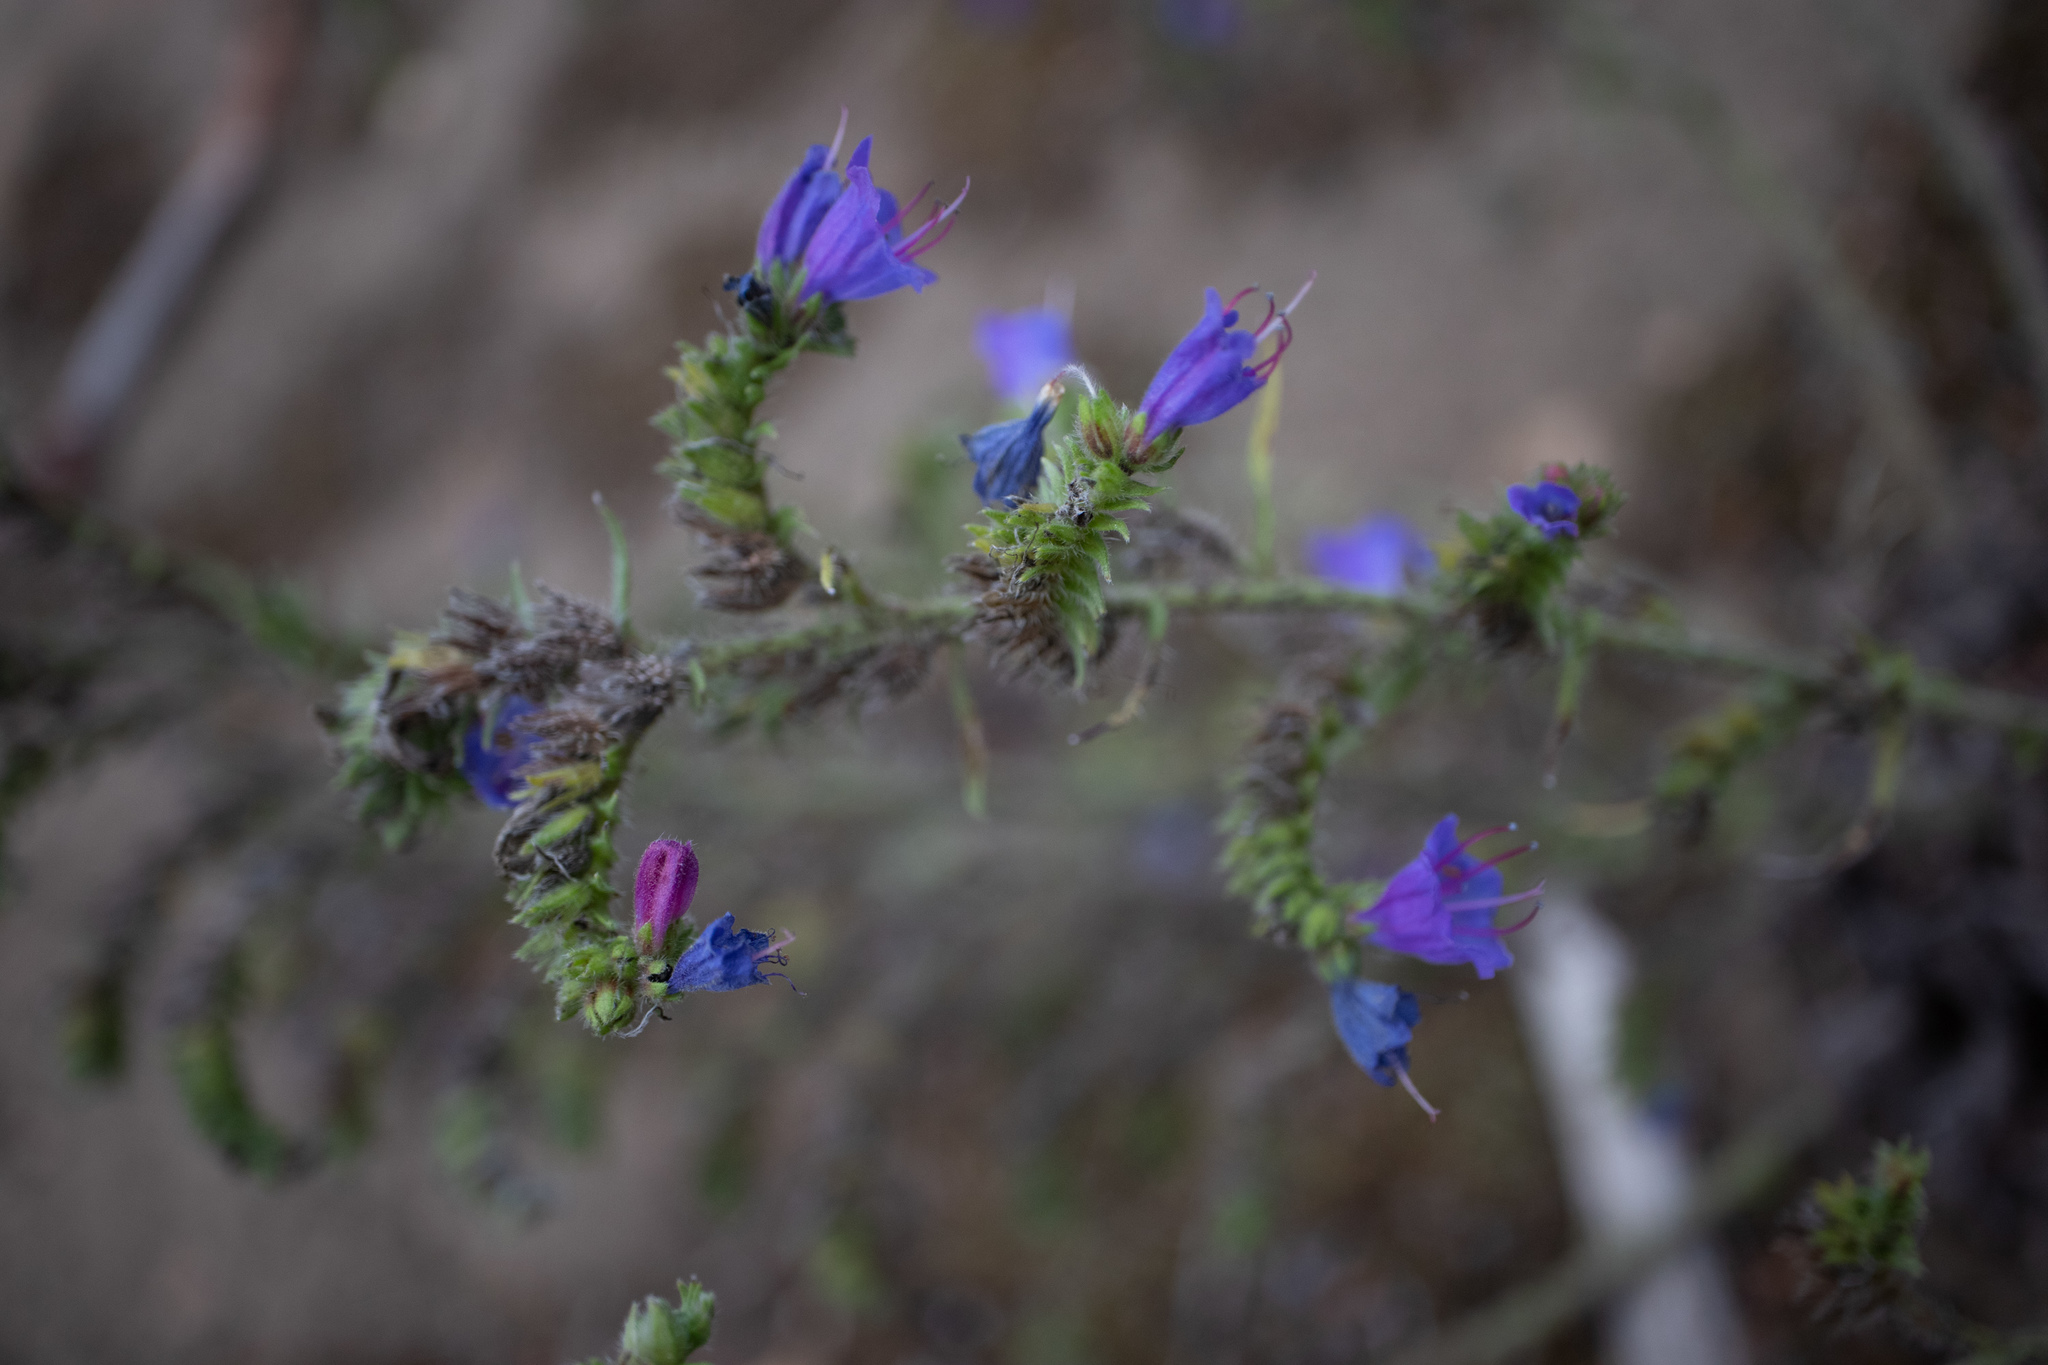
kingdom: Plantae
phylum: Tracheophyta
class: Magnoliopsida
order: Boraginales
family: Boraginaceae
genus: Echium
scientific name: Echium vulgare
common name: Common viper's bugloss
